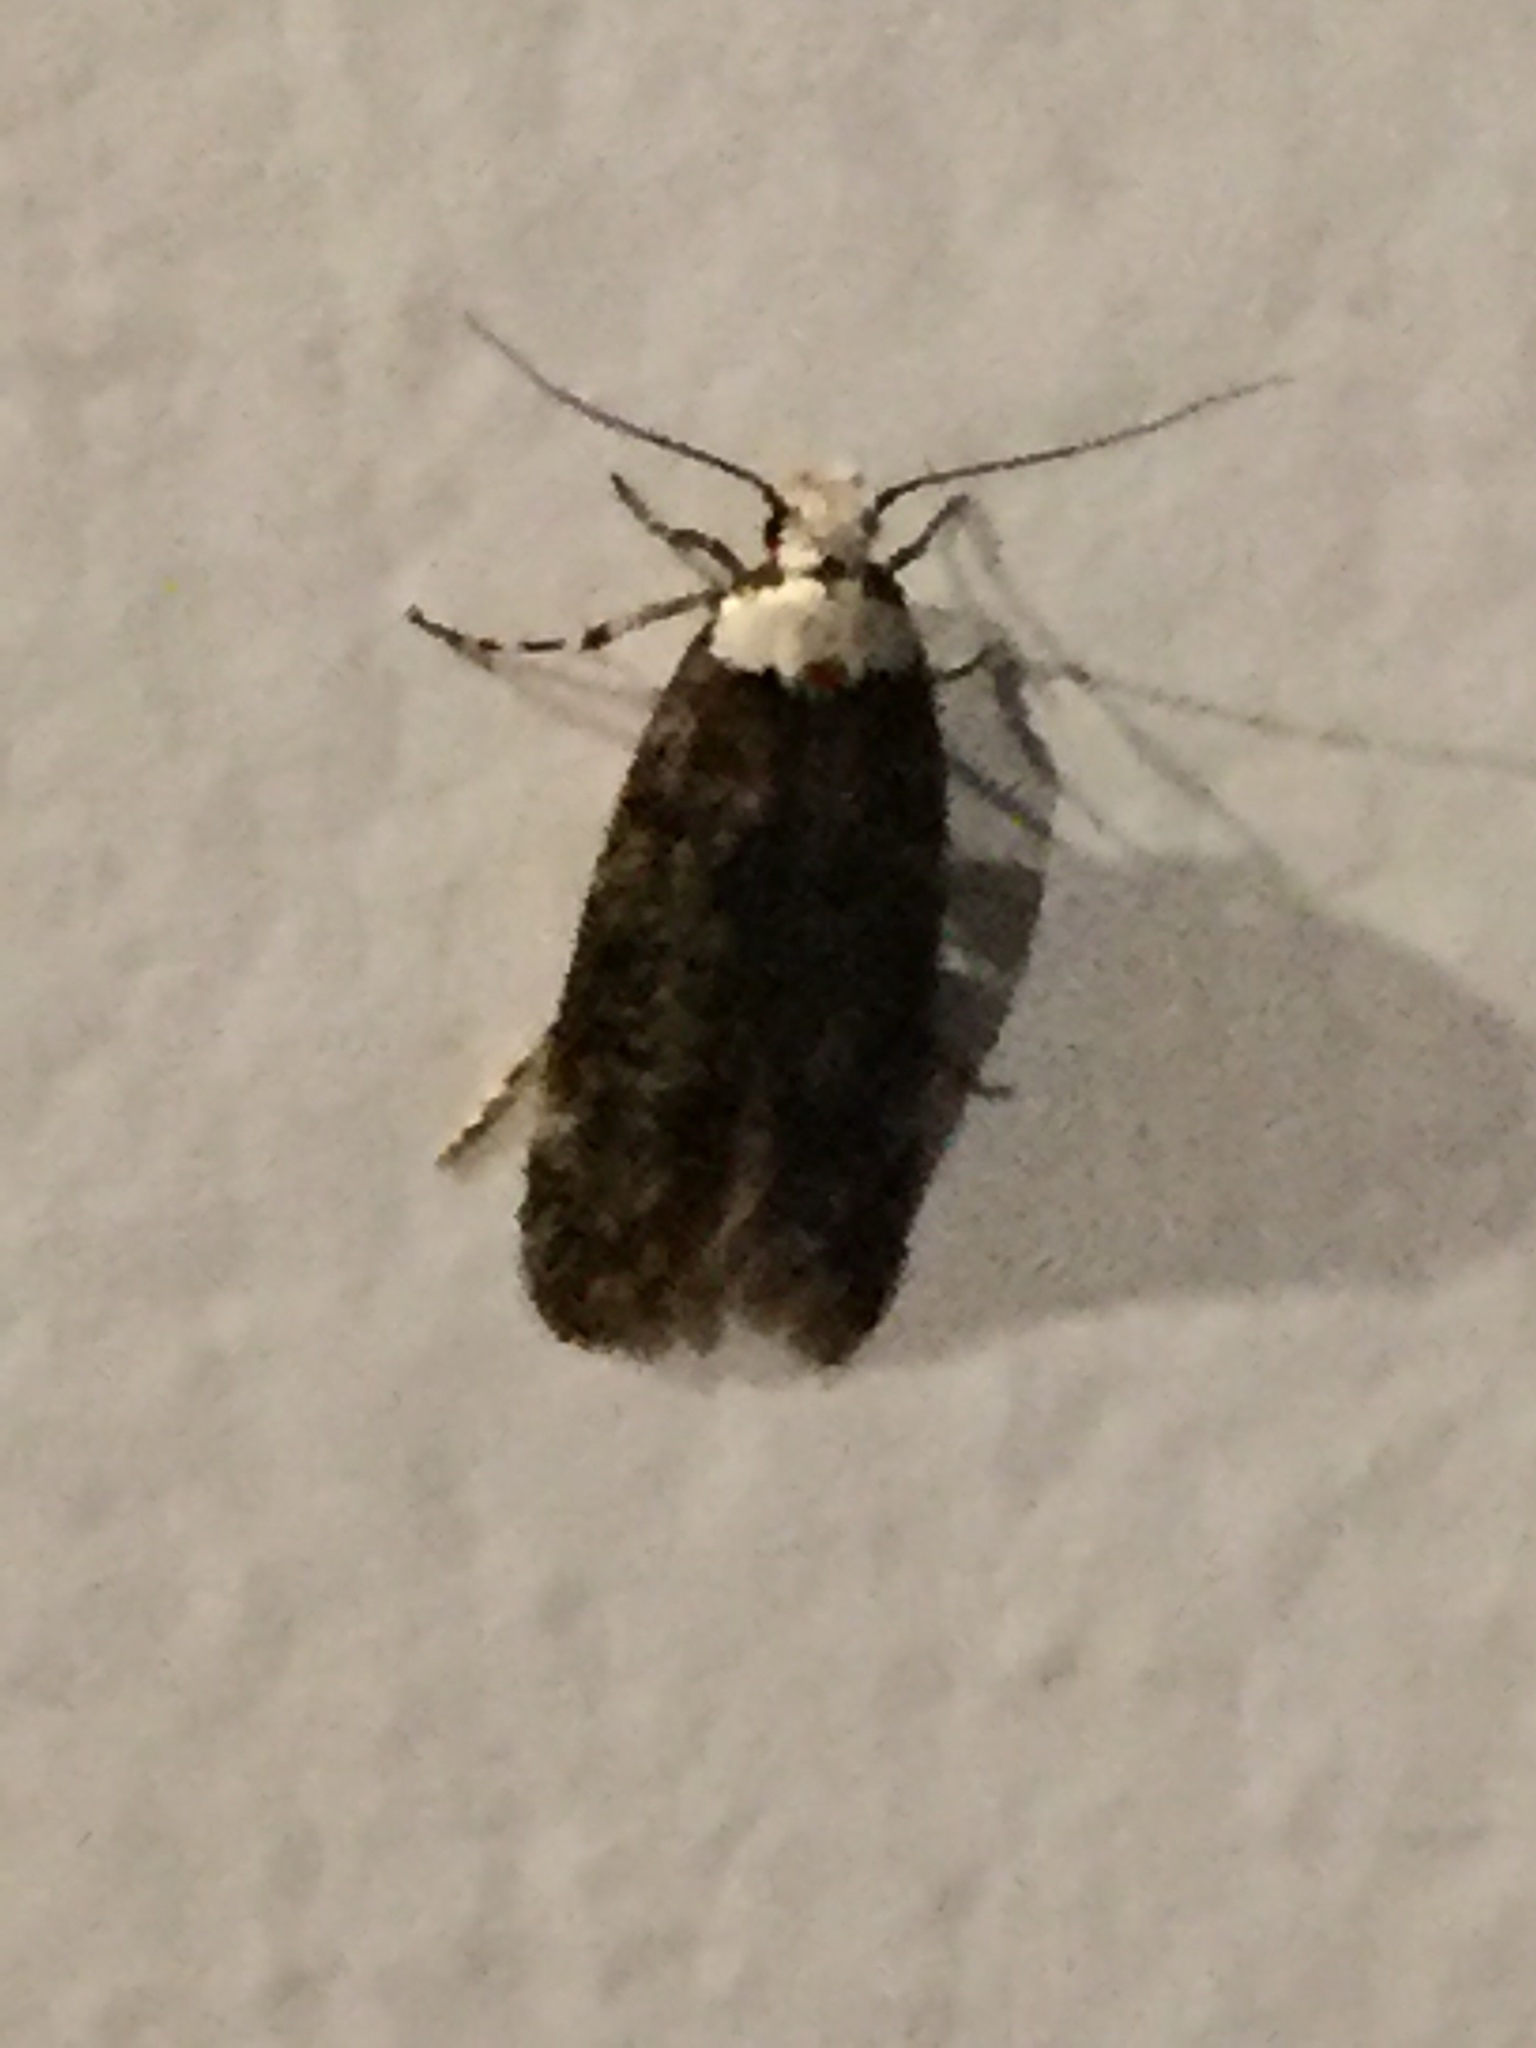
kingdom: Animalia
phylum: Arthropoda
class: Insecta
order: Lepidoptera
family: Oecophoridae
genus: Endrosis
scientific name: Endrosis sarcitrella
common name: White-shouldered house moth
